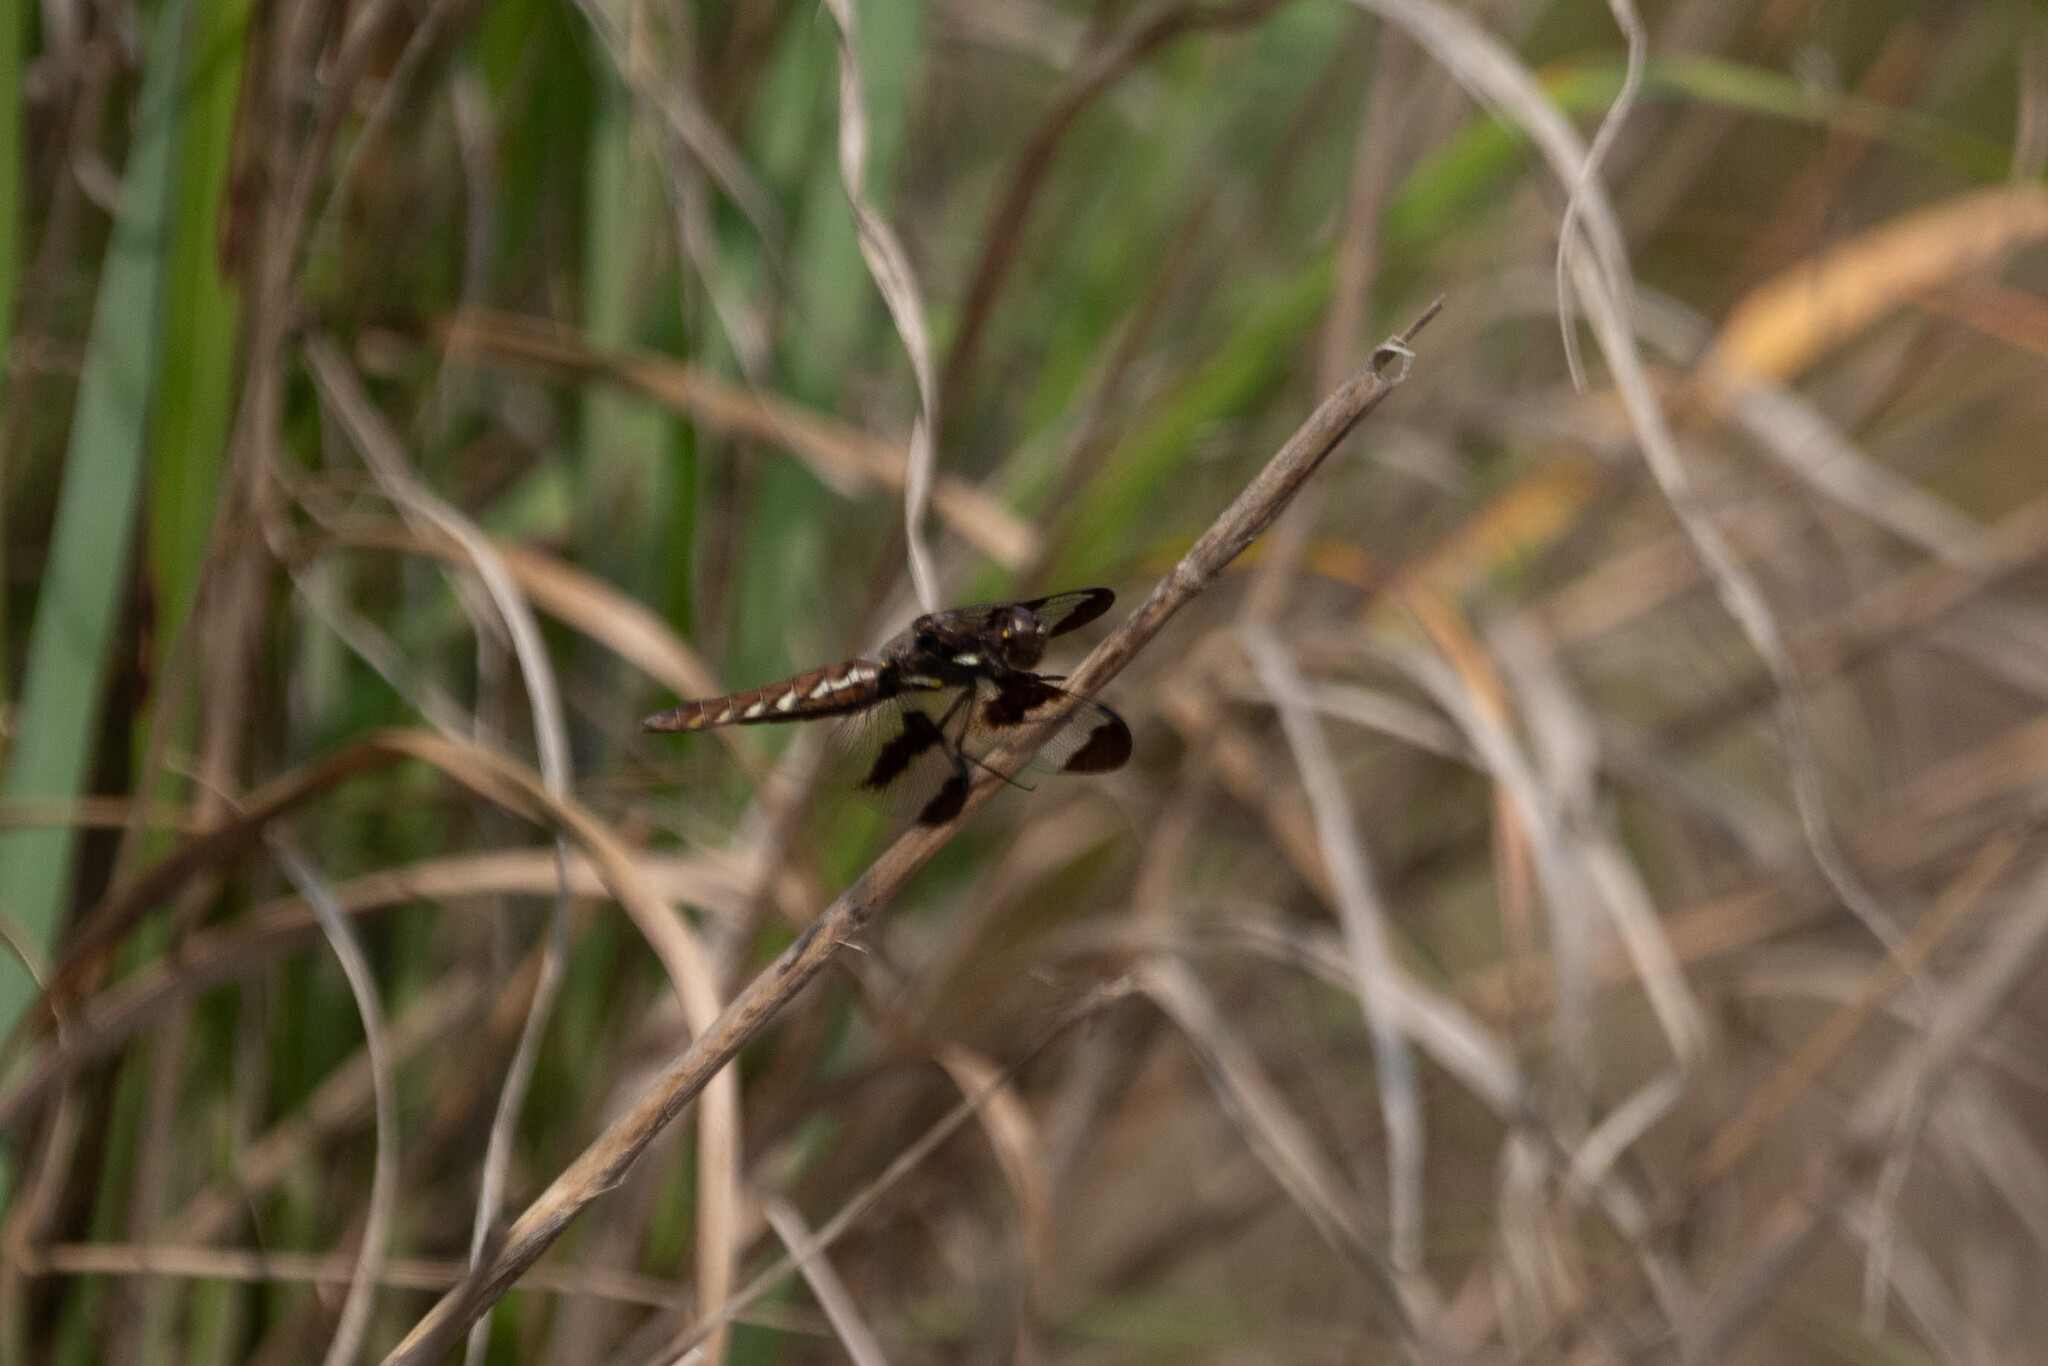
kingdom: Animalia
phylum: Arthropoda
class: Insecta
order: Odonata
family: Libellulidae
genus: Plathemis
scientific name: Plathemis lydia
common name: Common whitetail
